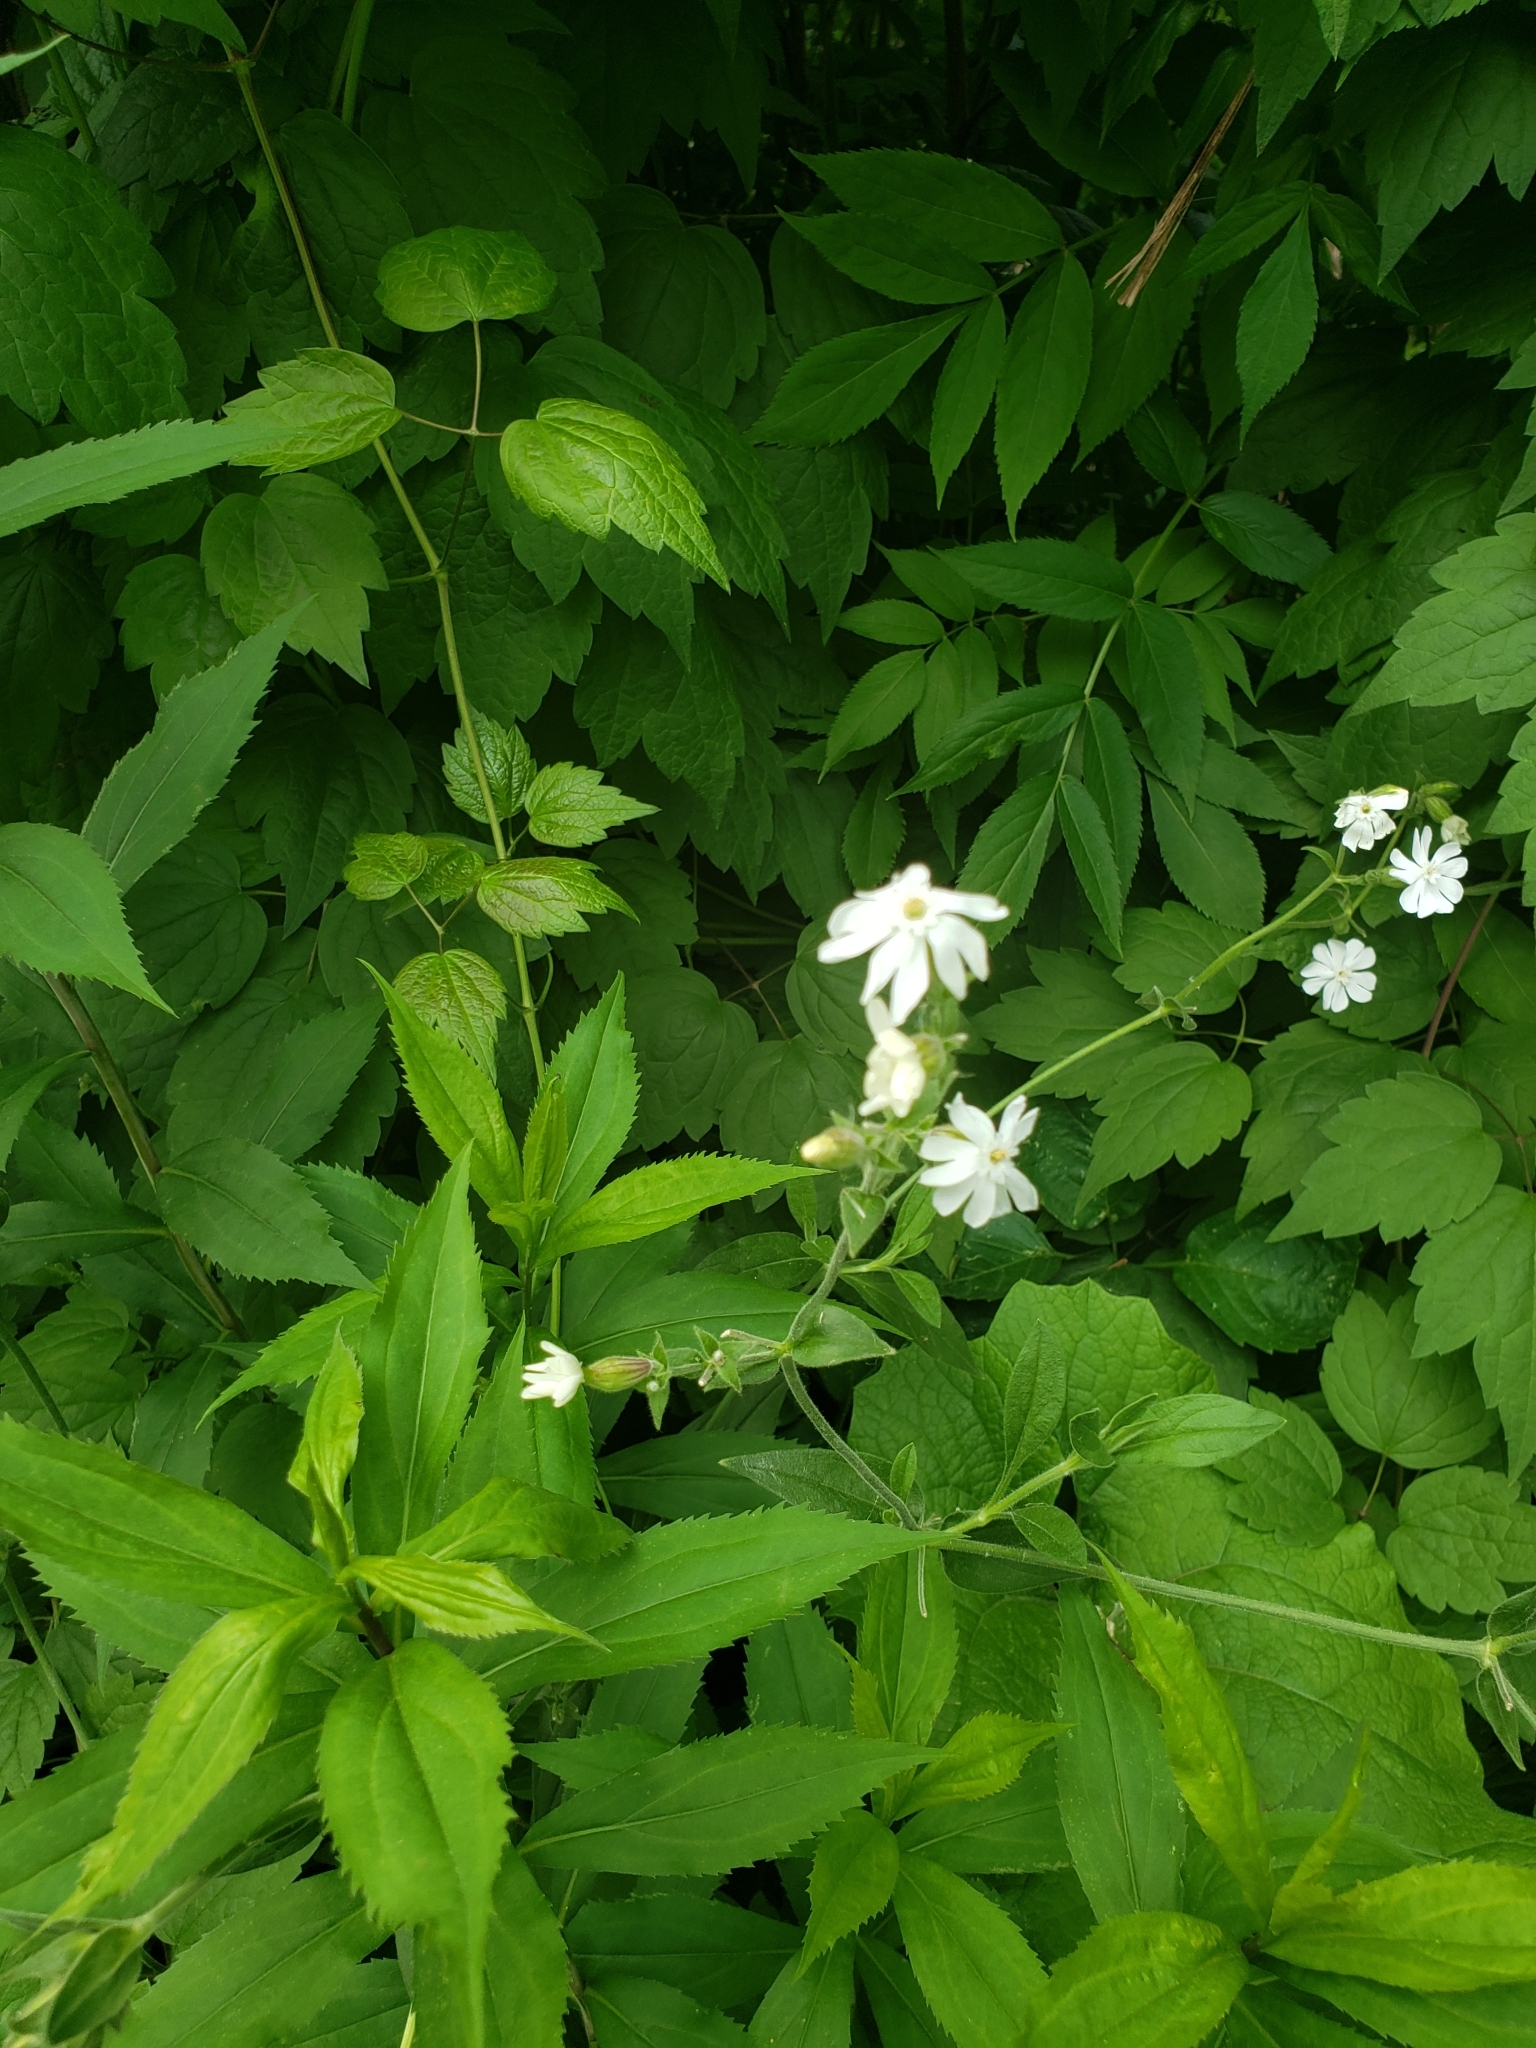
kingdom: Plantae
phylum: Tracheophyta
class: Magnoliopsida
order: Caryophyllales
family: Caryophyllaceae
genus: Silene
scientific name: Silene latifolia
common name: White campion
